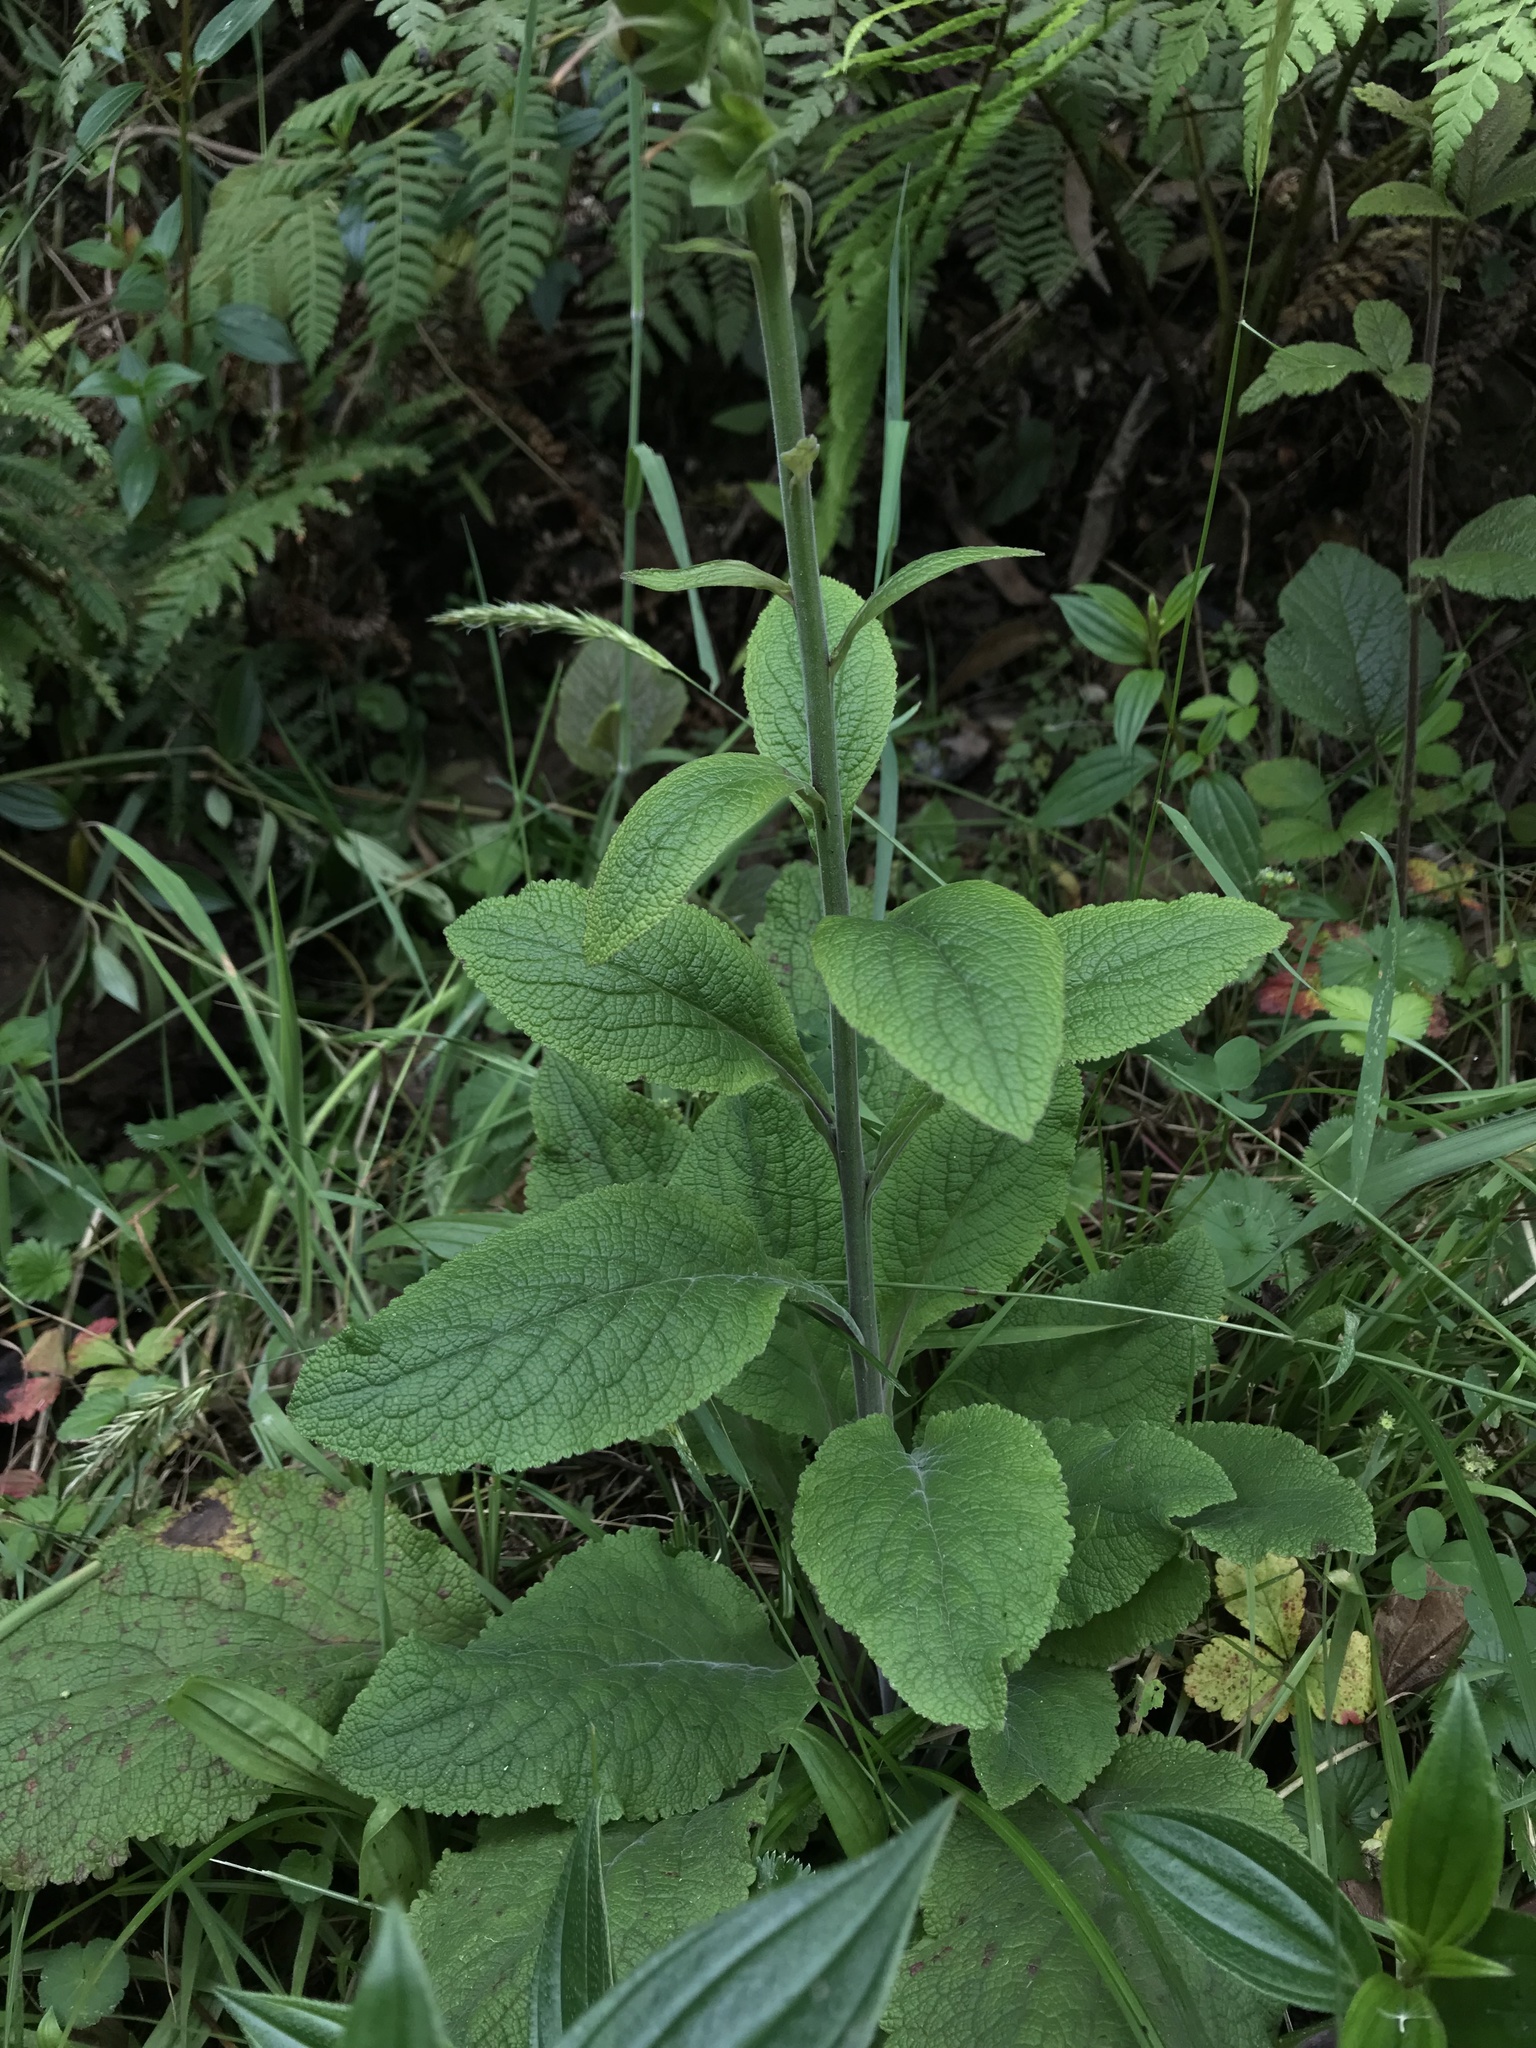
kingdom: Plantae
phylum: Tracheophyta
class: Magnoliopsida
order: Lamiales
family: Plantaginaceae
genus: Digitalis
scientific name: Digitalis purpurea
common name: Foxglove
